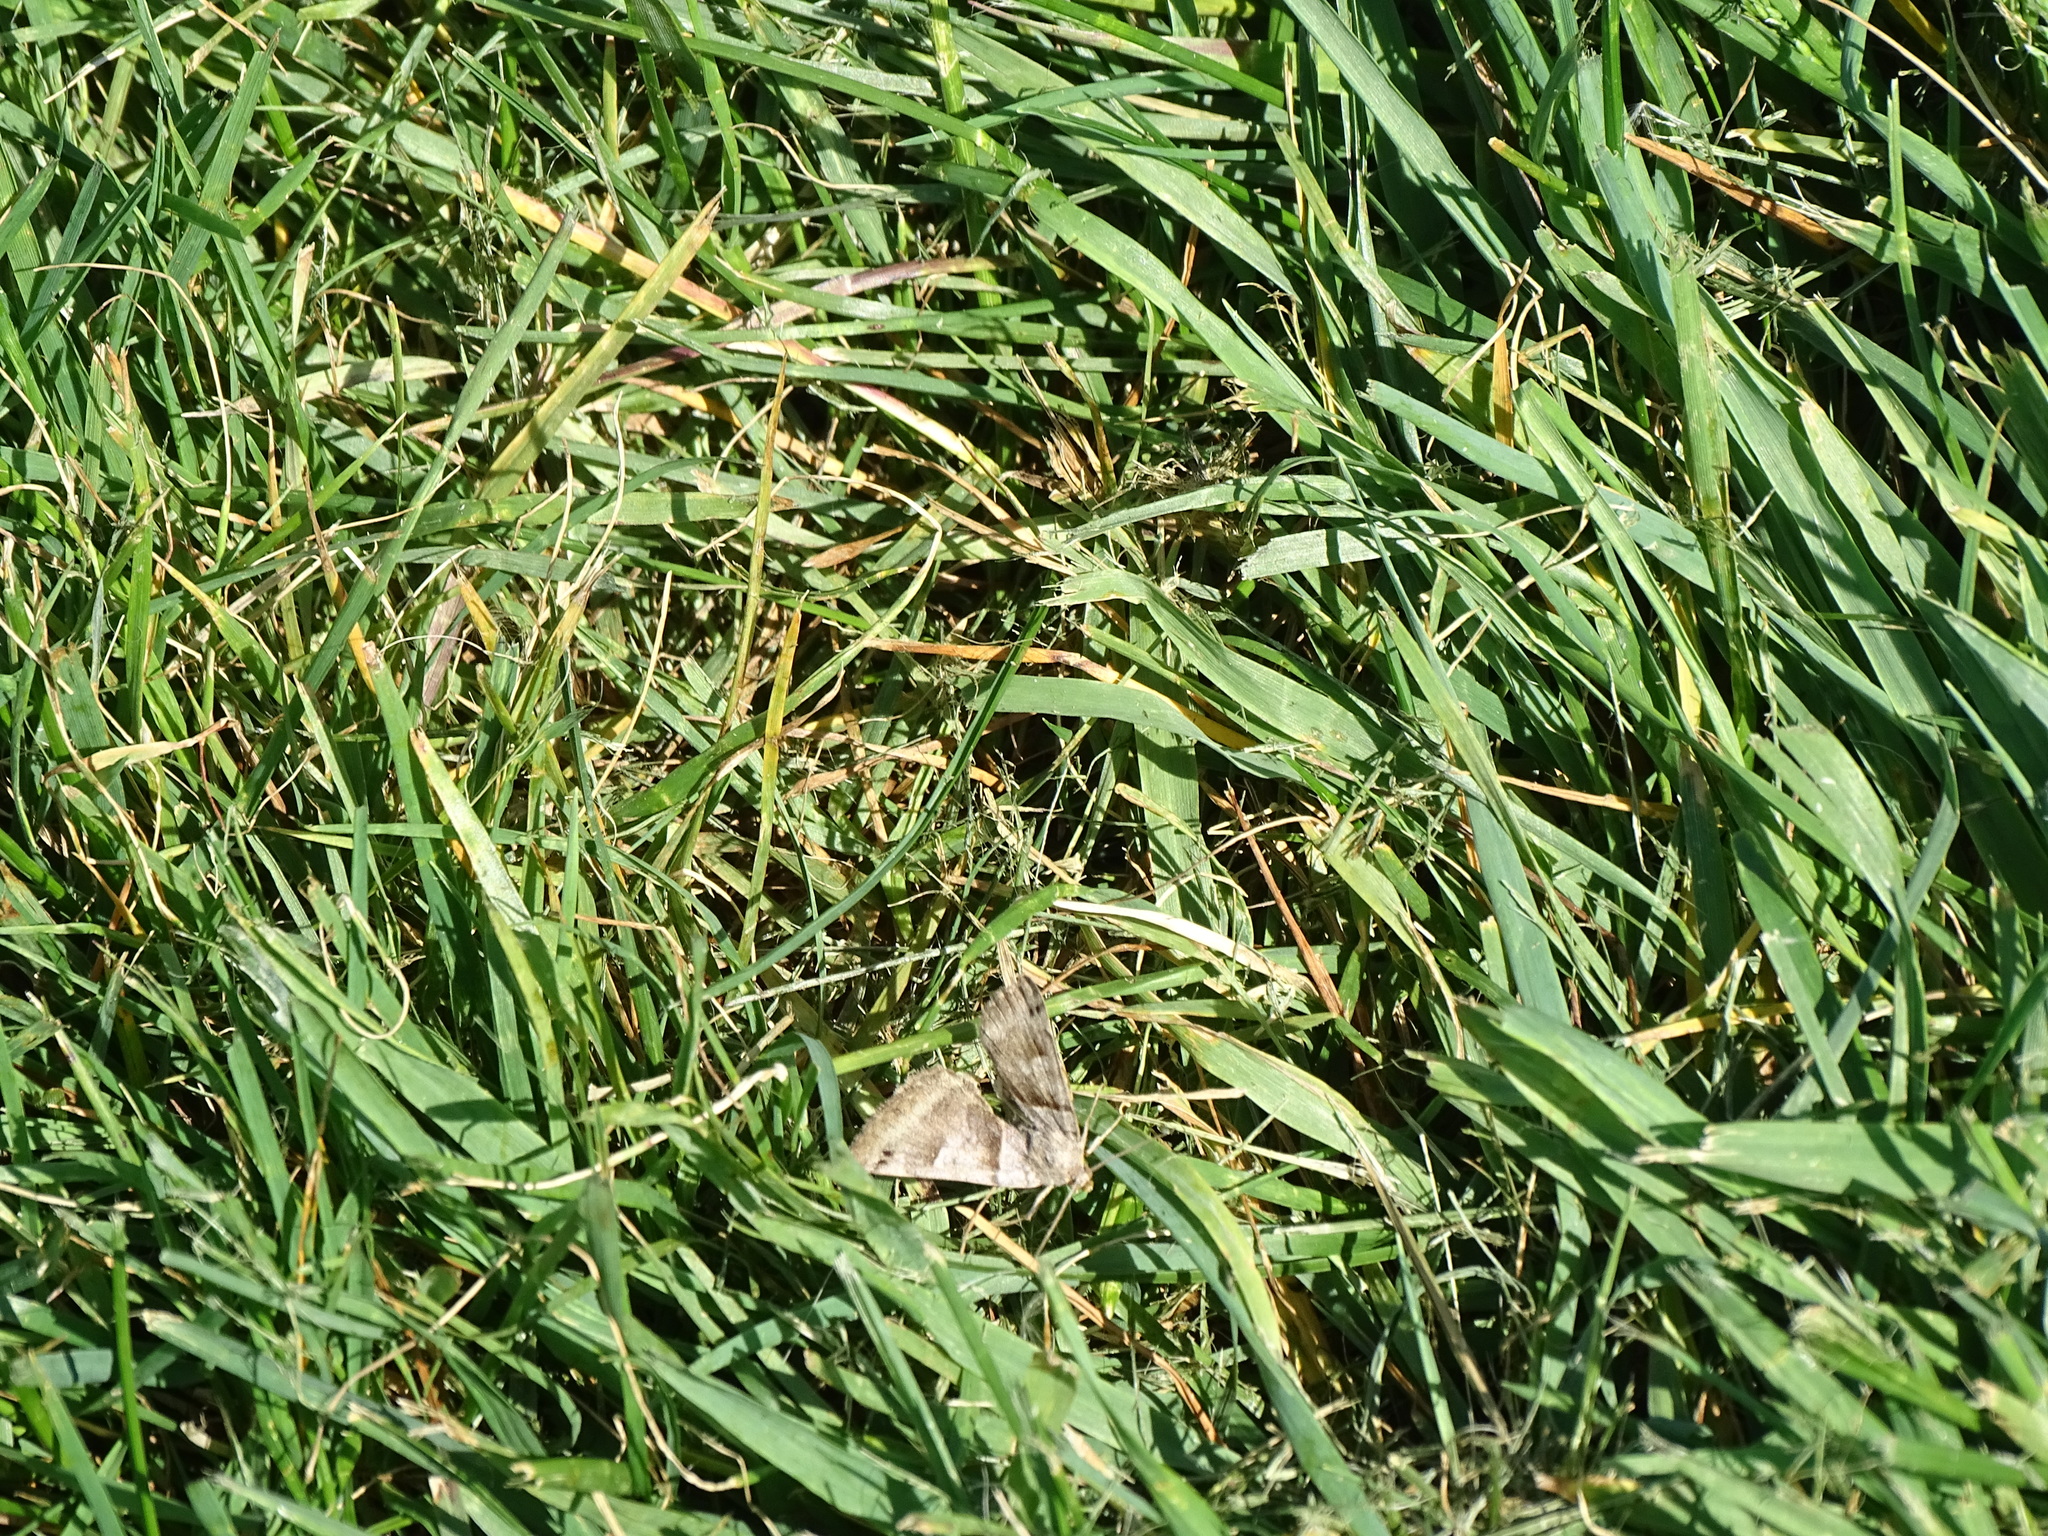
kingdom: Animalia
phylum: Arthropoda
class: Insecta
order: Lepidoptera
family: Erebidae
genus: Caenurgina
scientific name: Caenurgina crassiuscula
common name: Double-barred
